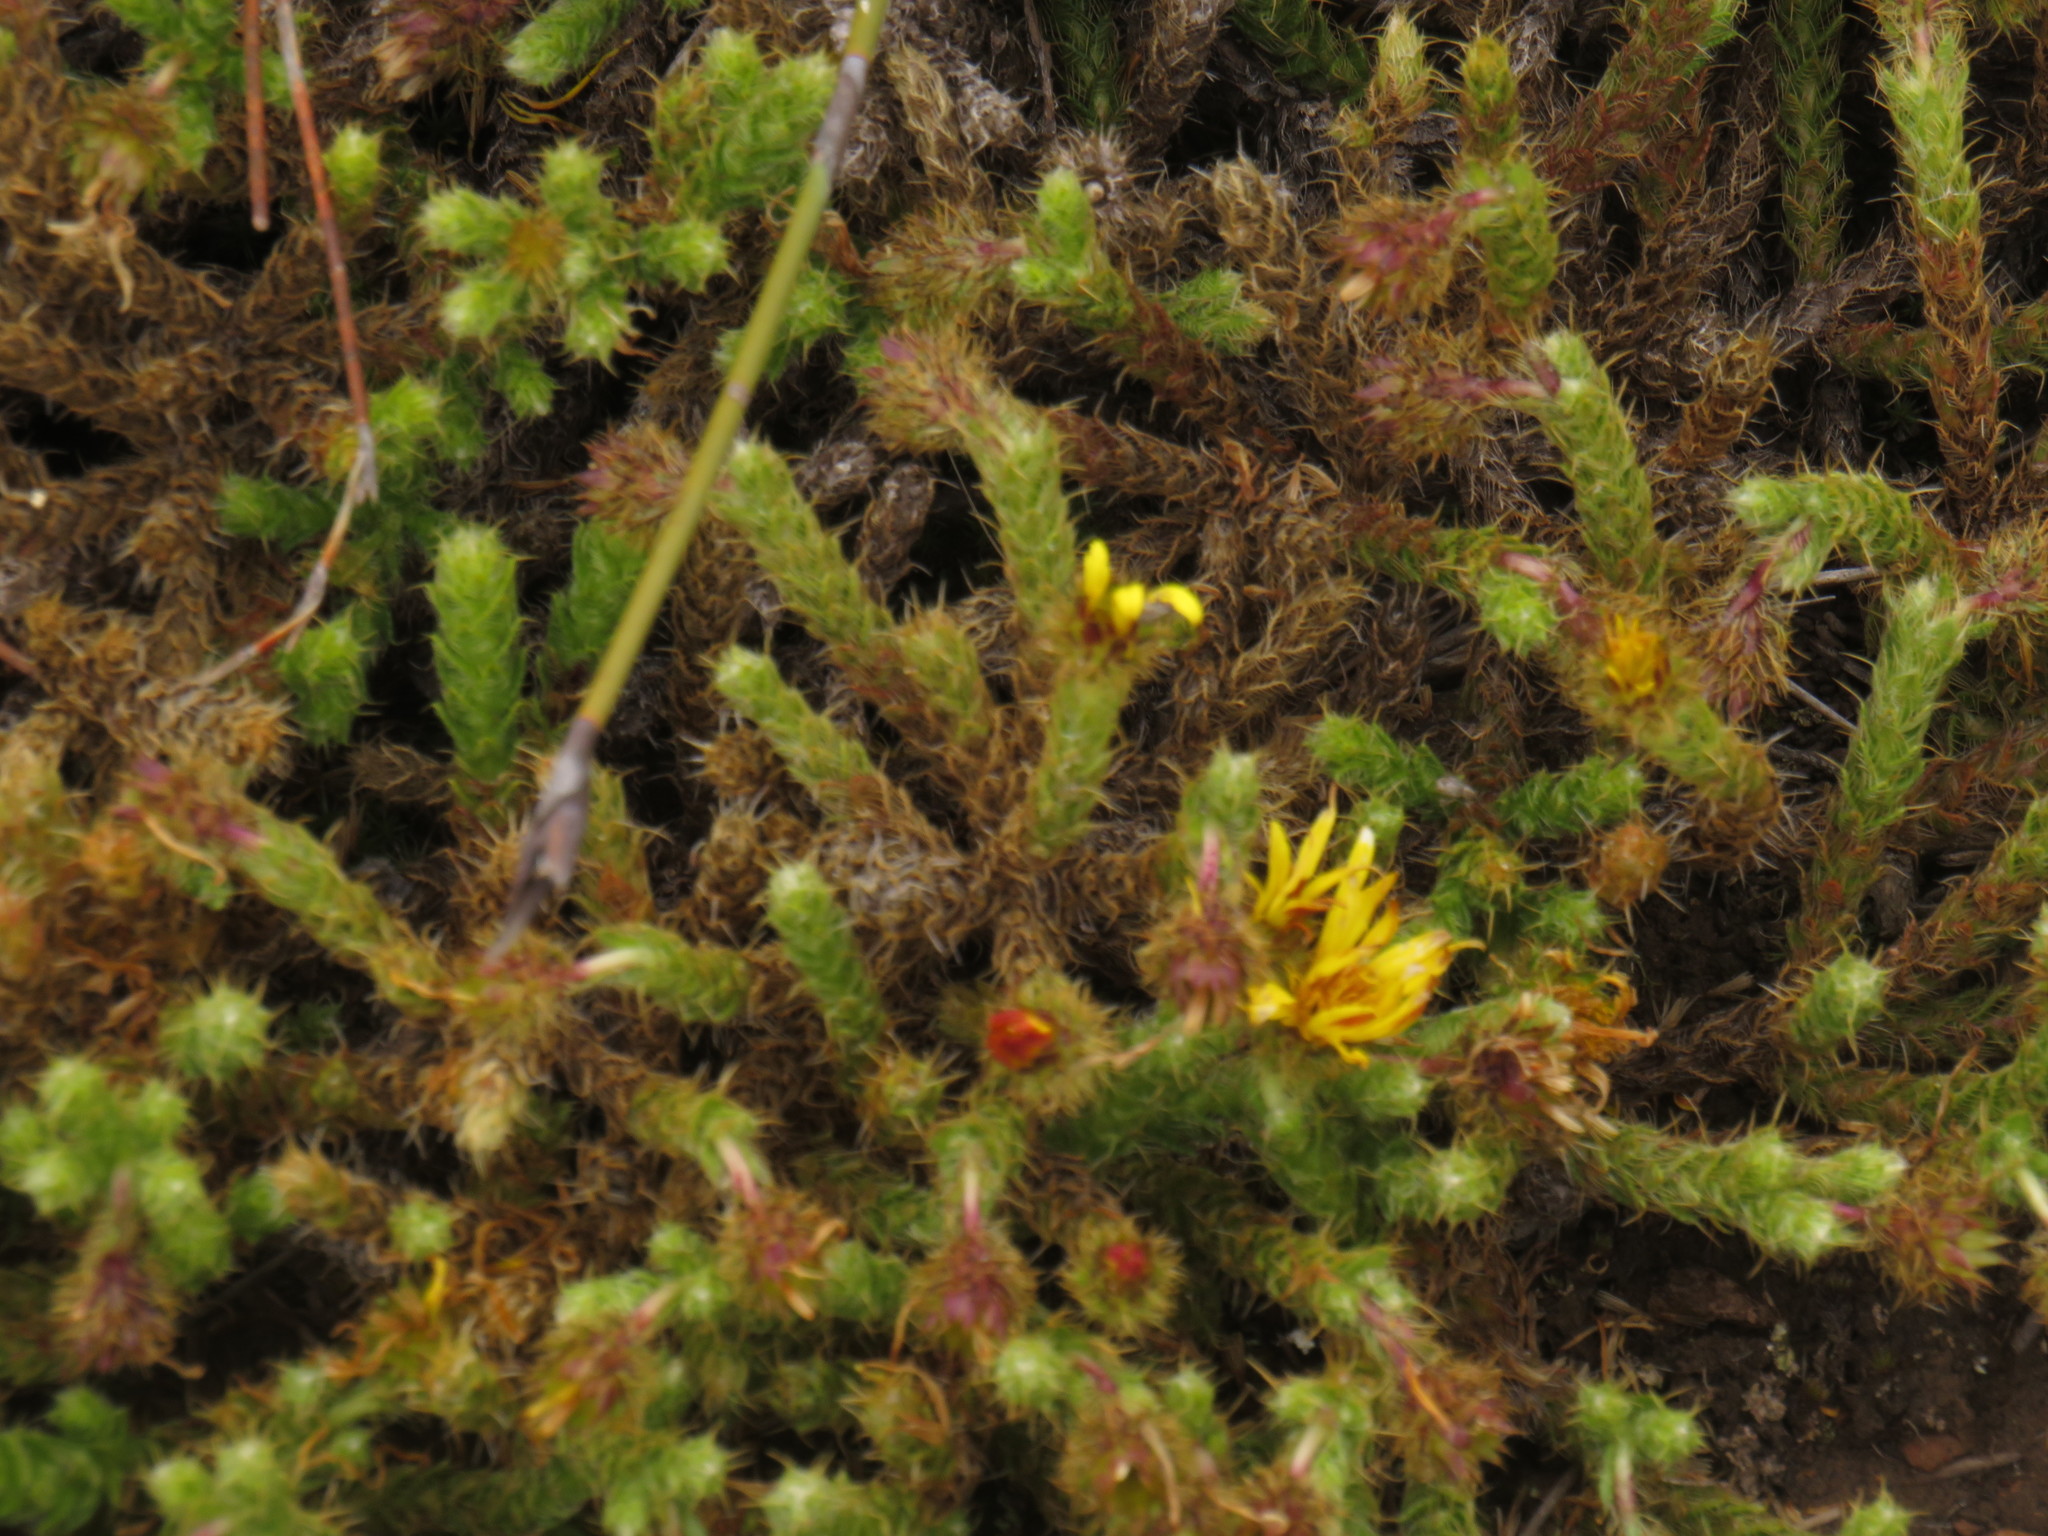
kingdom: Plantae
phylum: Tracheophyta
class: Magnoliopsida
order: Asterales
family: Asteraceae
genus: Cullumia
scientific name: Cullumia reticulata
